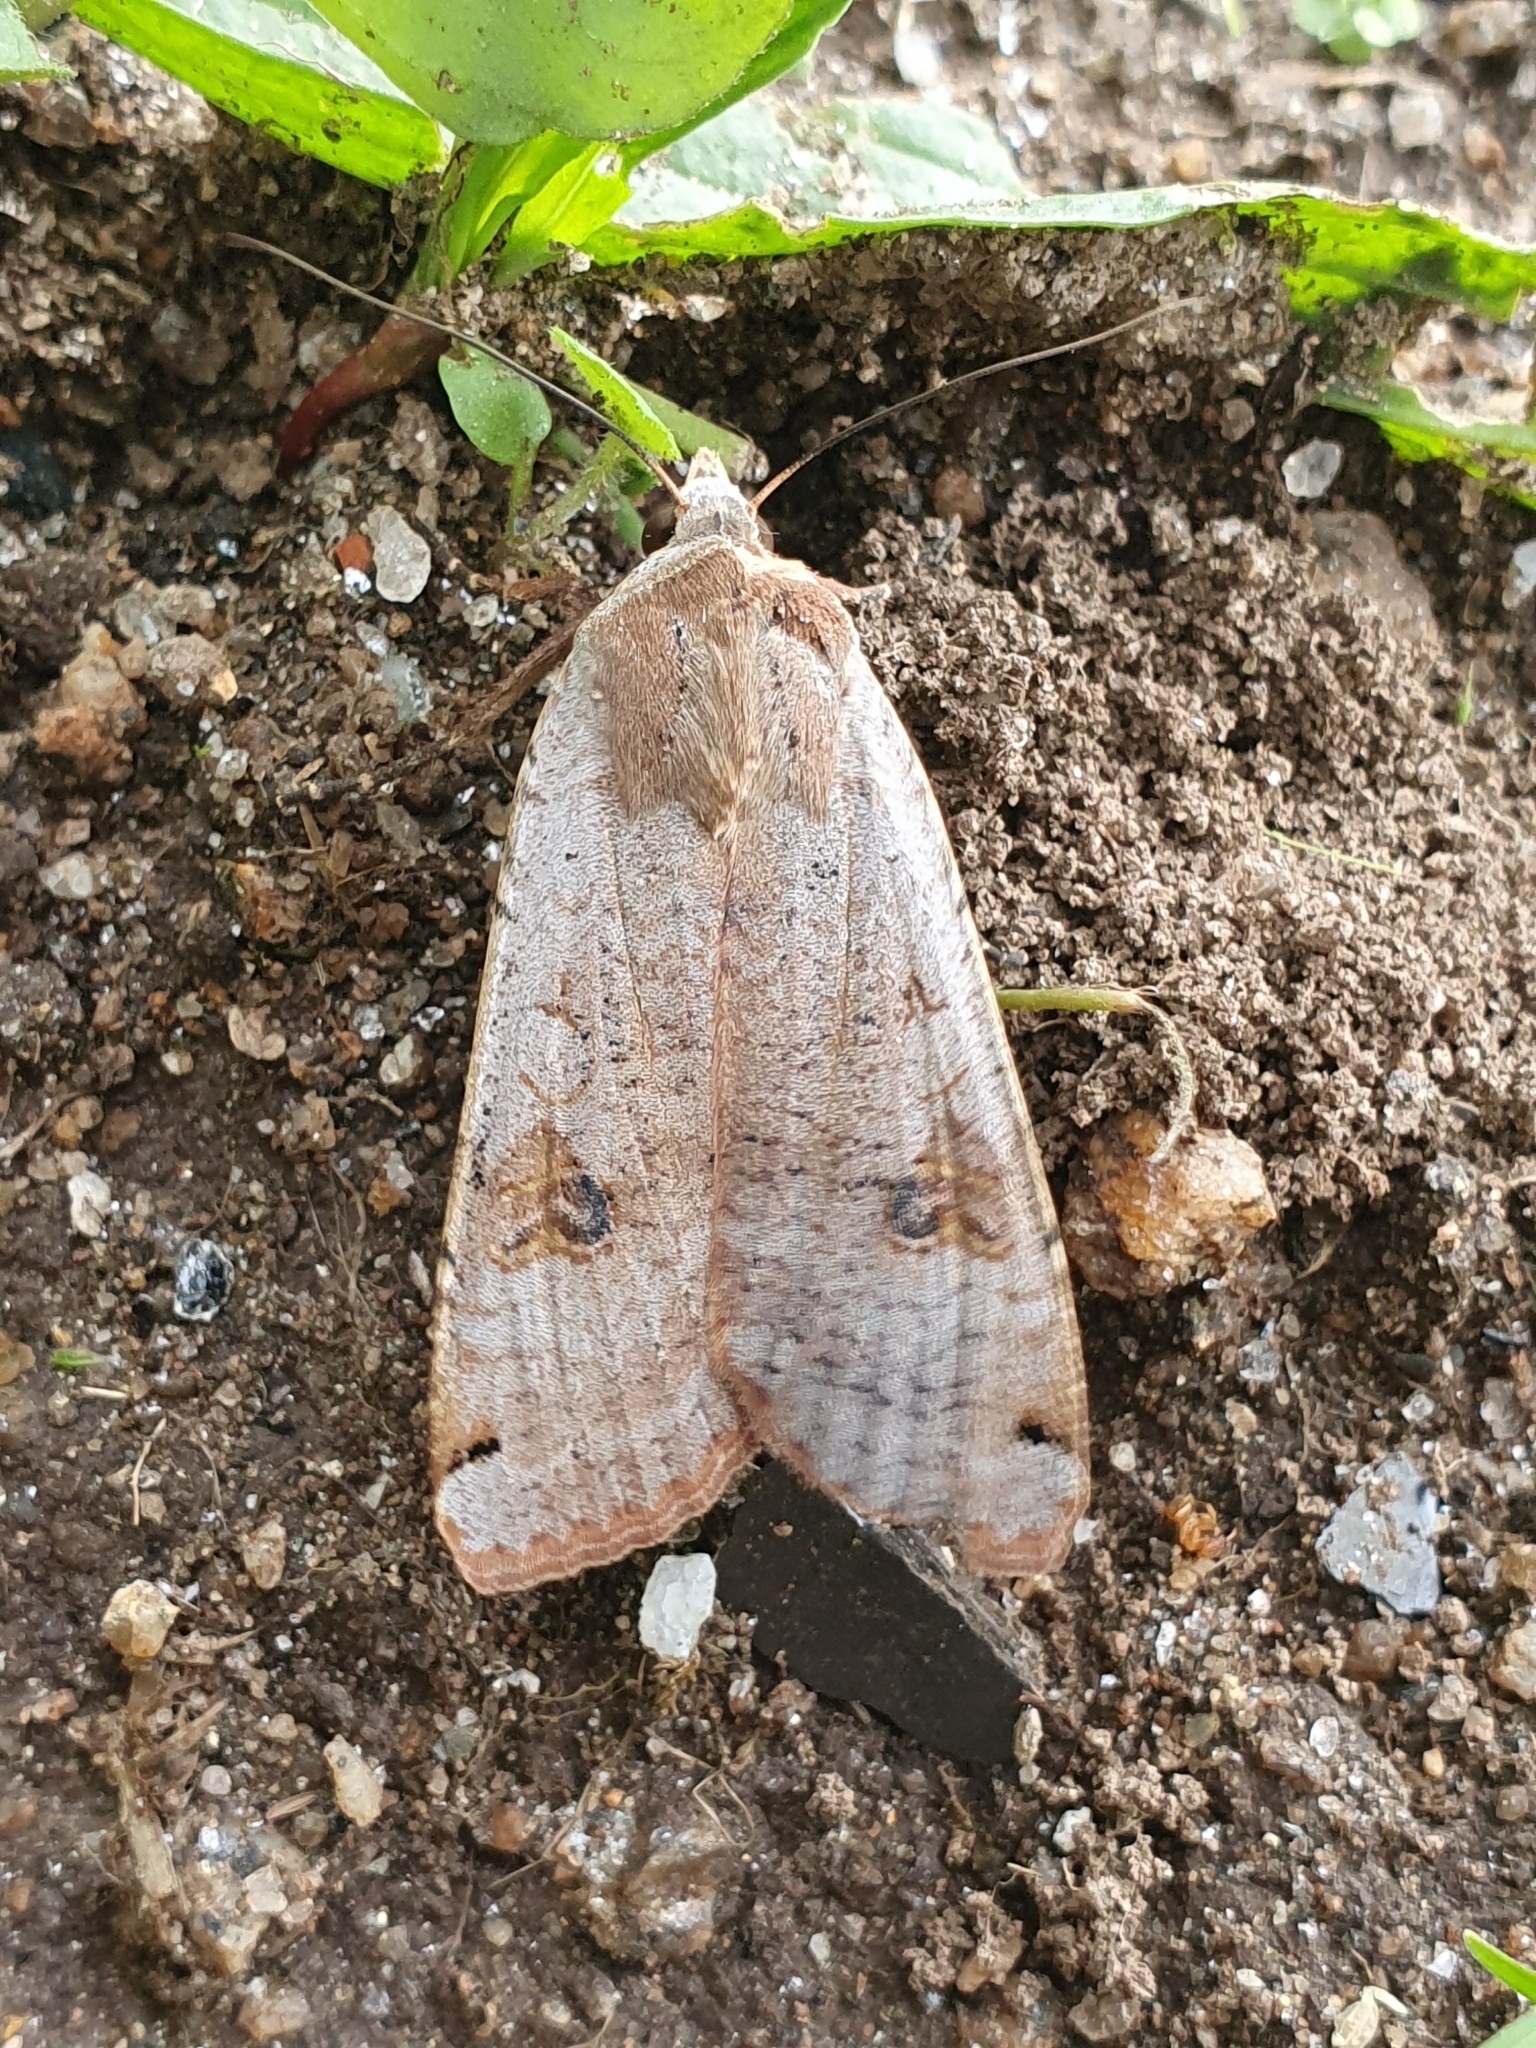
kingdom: Animalia
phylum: Arthropoda
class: Insecta
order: Lepidoptera
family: Noctuidae
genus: Noctua
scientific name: Noctua pronuba
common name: Large yellow underwing
